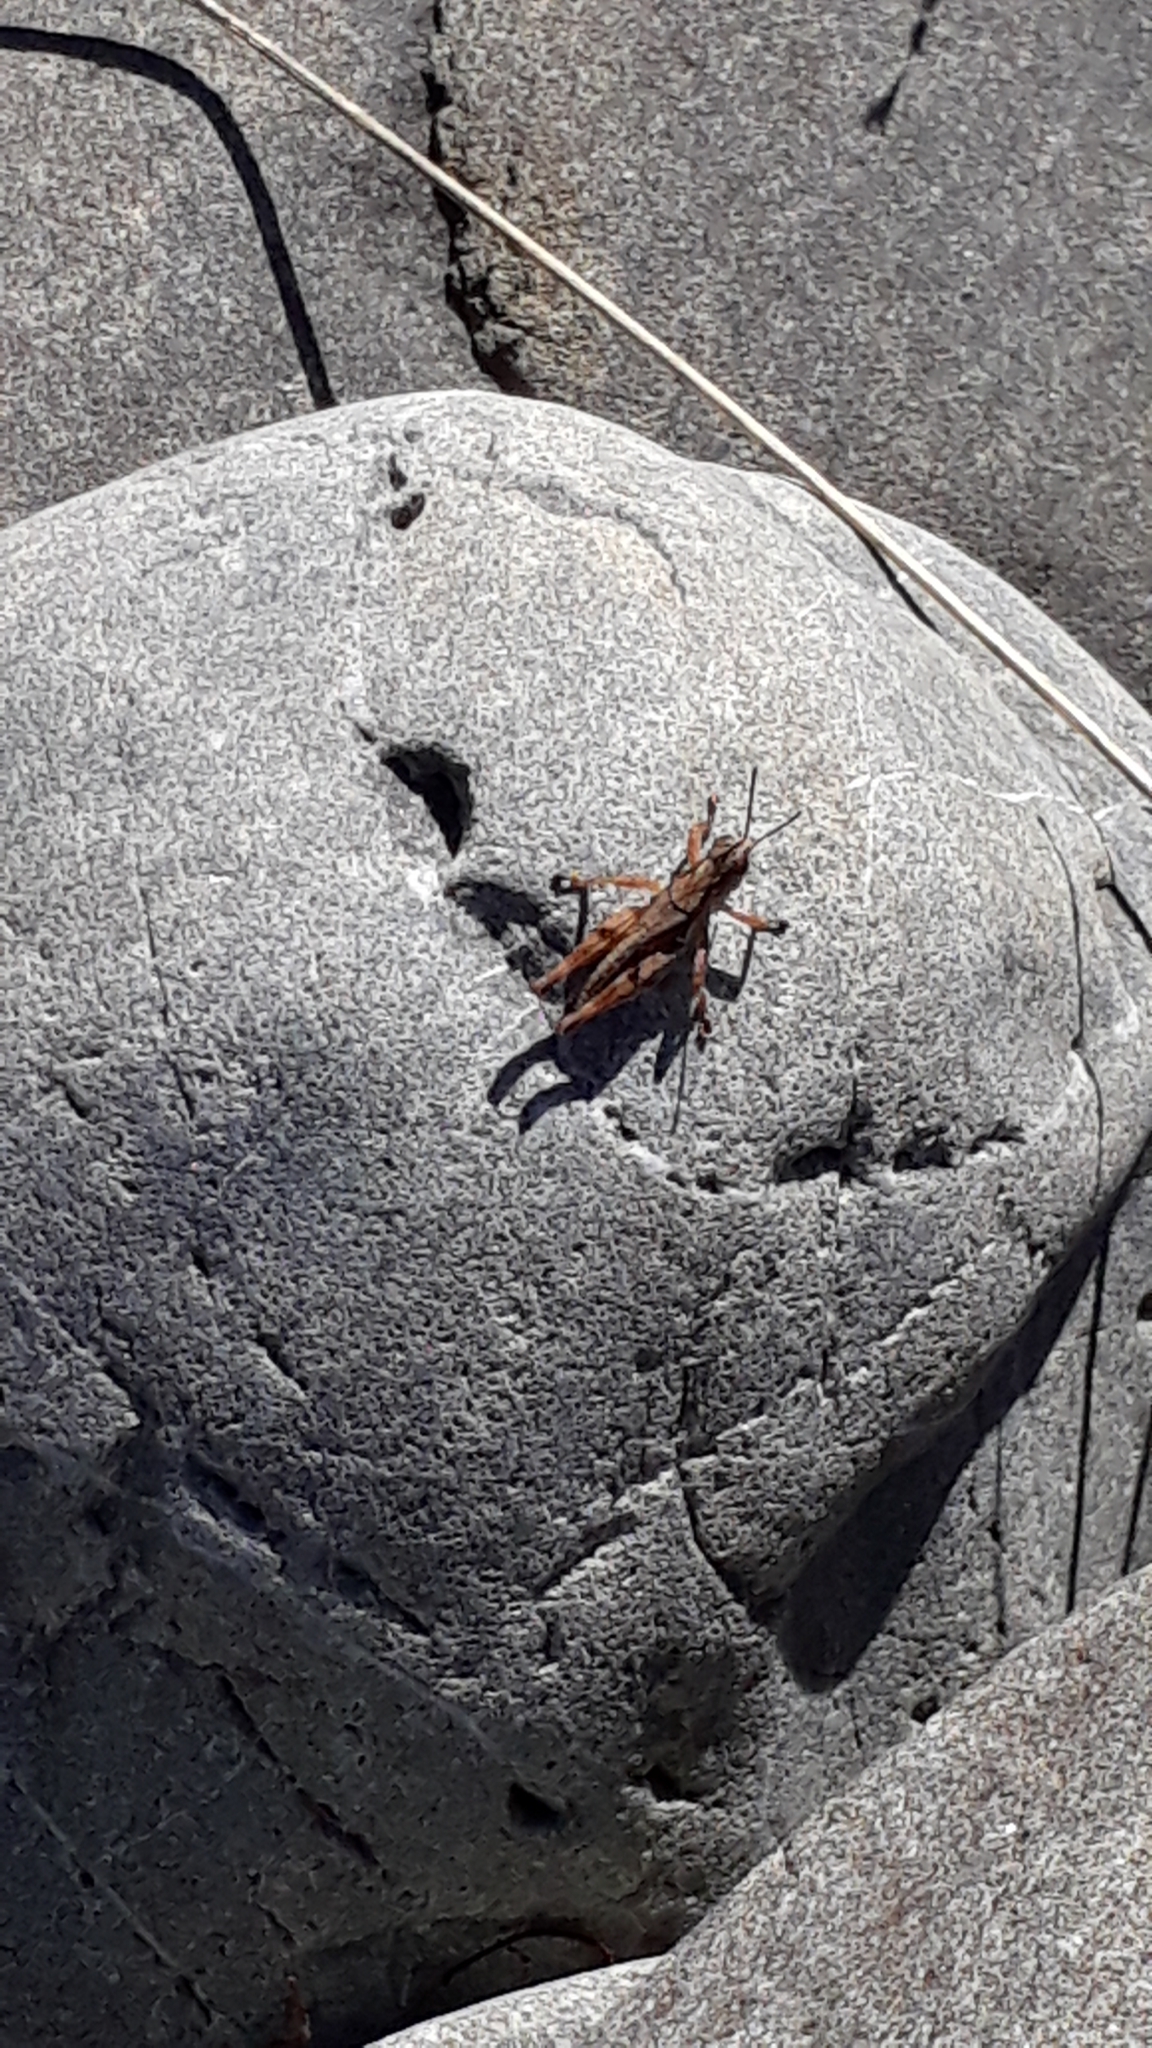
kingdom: Animalia
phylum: Arthropoda
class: Insecta
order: Orthoptera
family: Acrididae
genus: Phaulacridium
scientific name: Phaulacridium marginale
